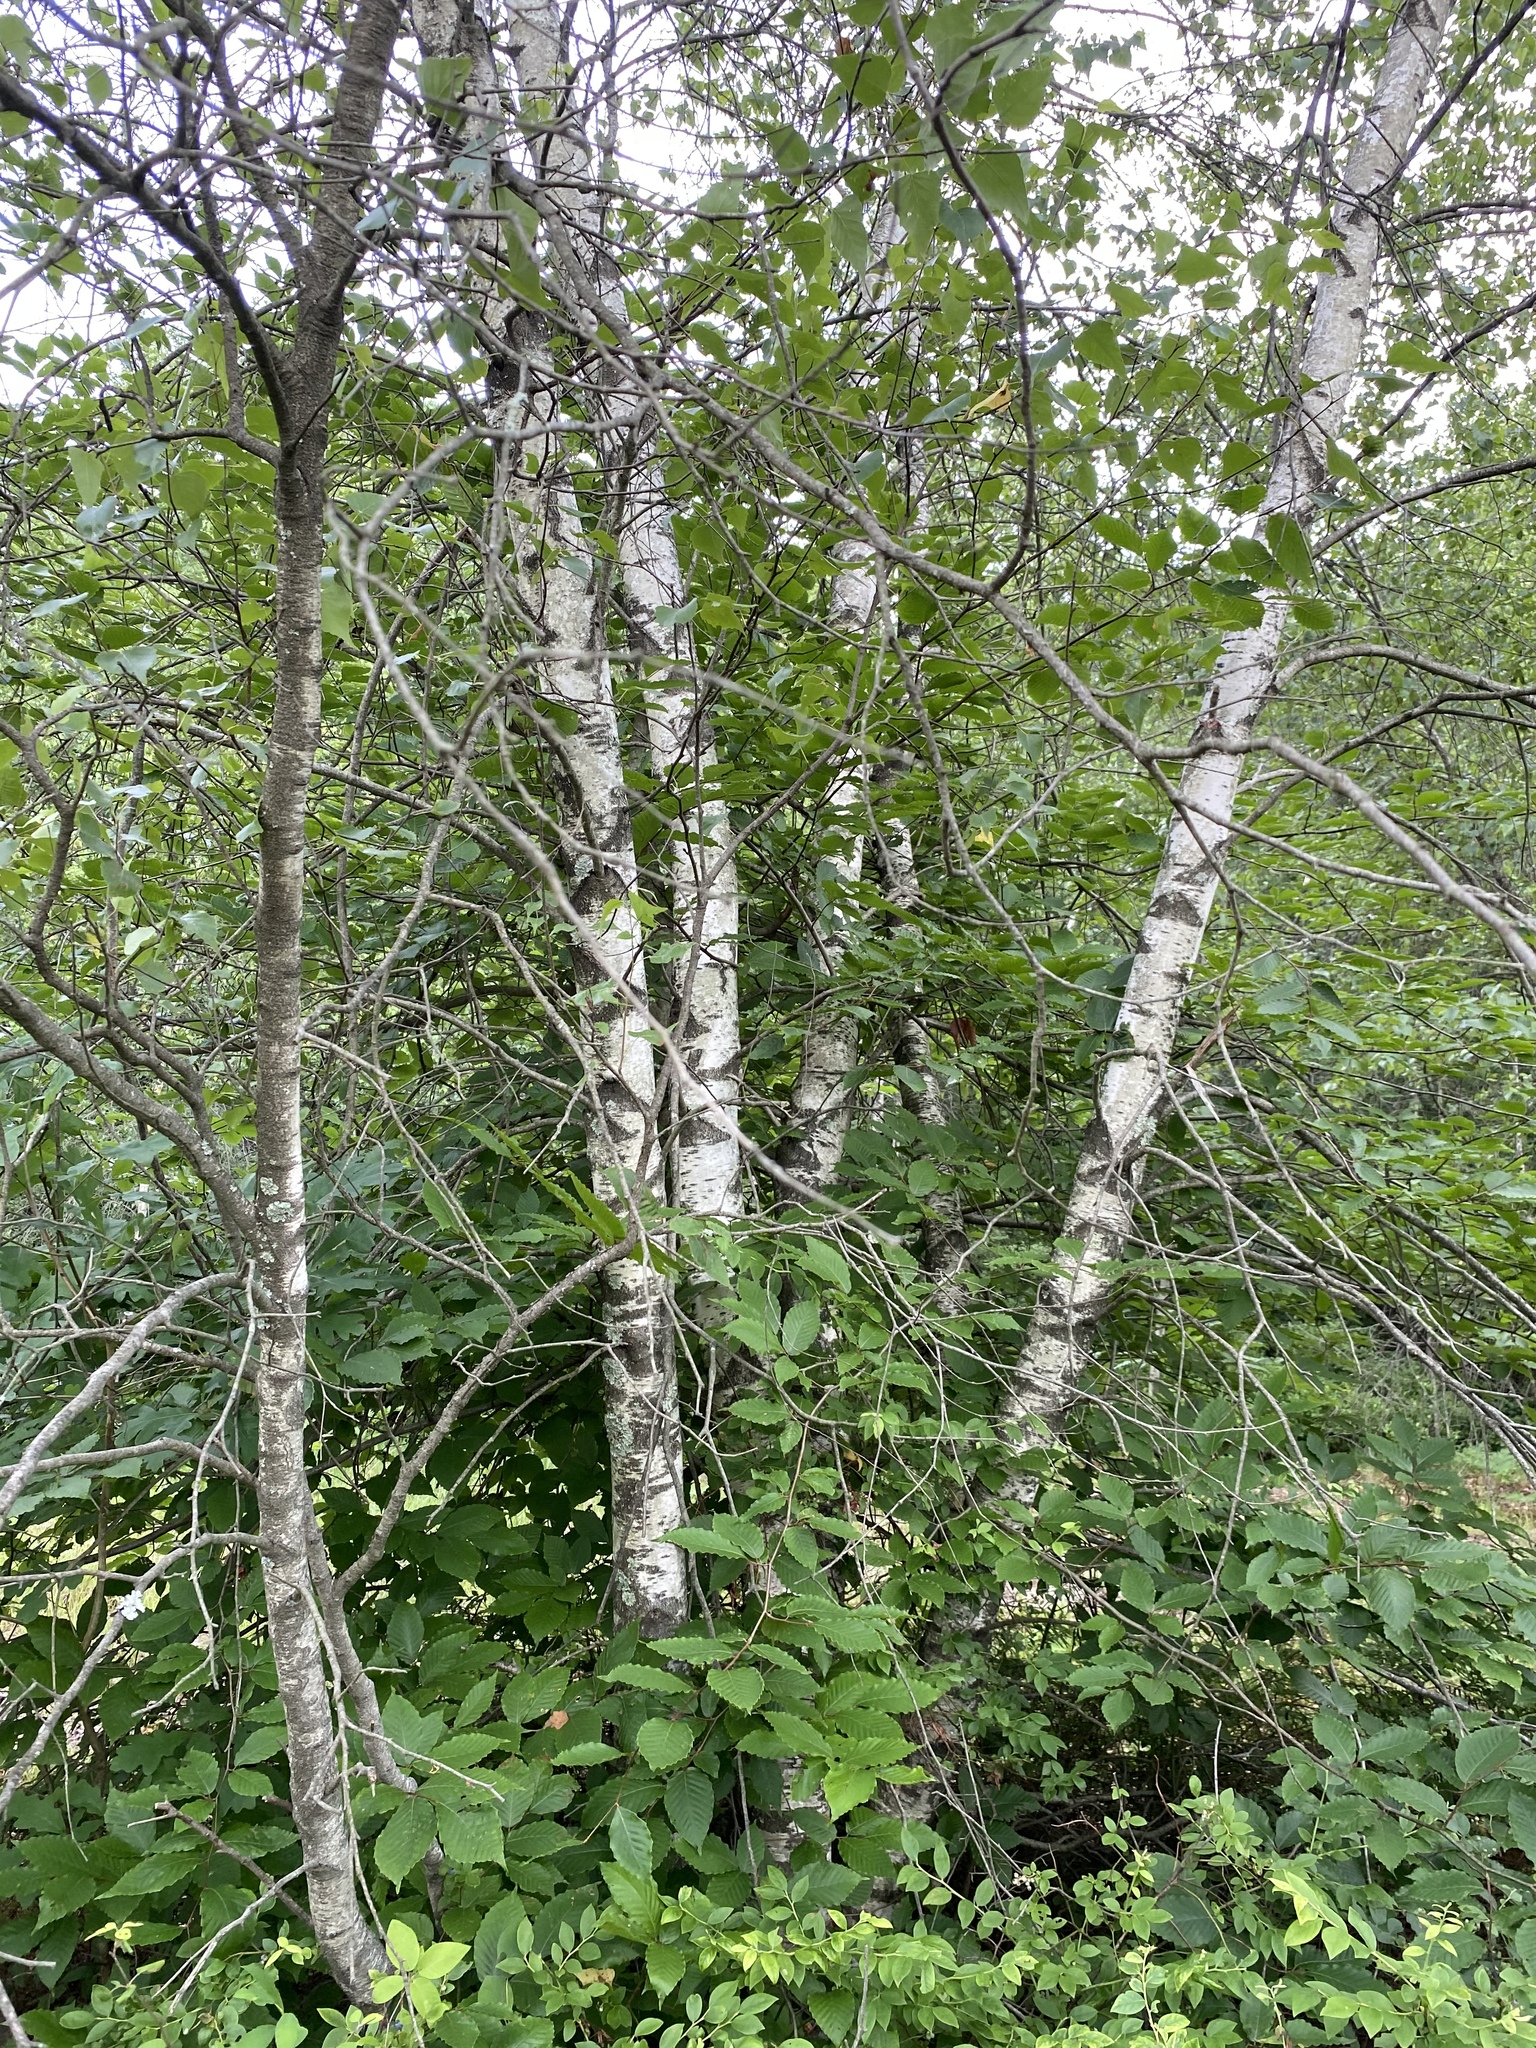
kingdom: Plantae
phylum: Tracheophyta
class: Magnoliopsida
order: Fagales
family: Betulaceae
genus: Betula
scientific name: Betula populifolia
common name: Fire birch
